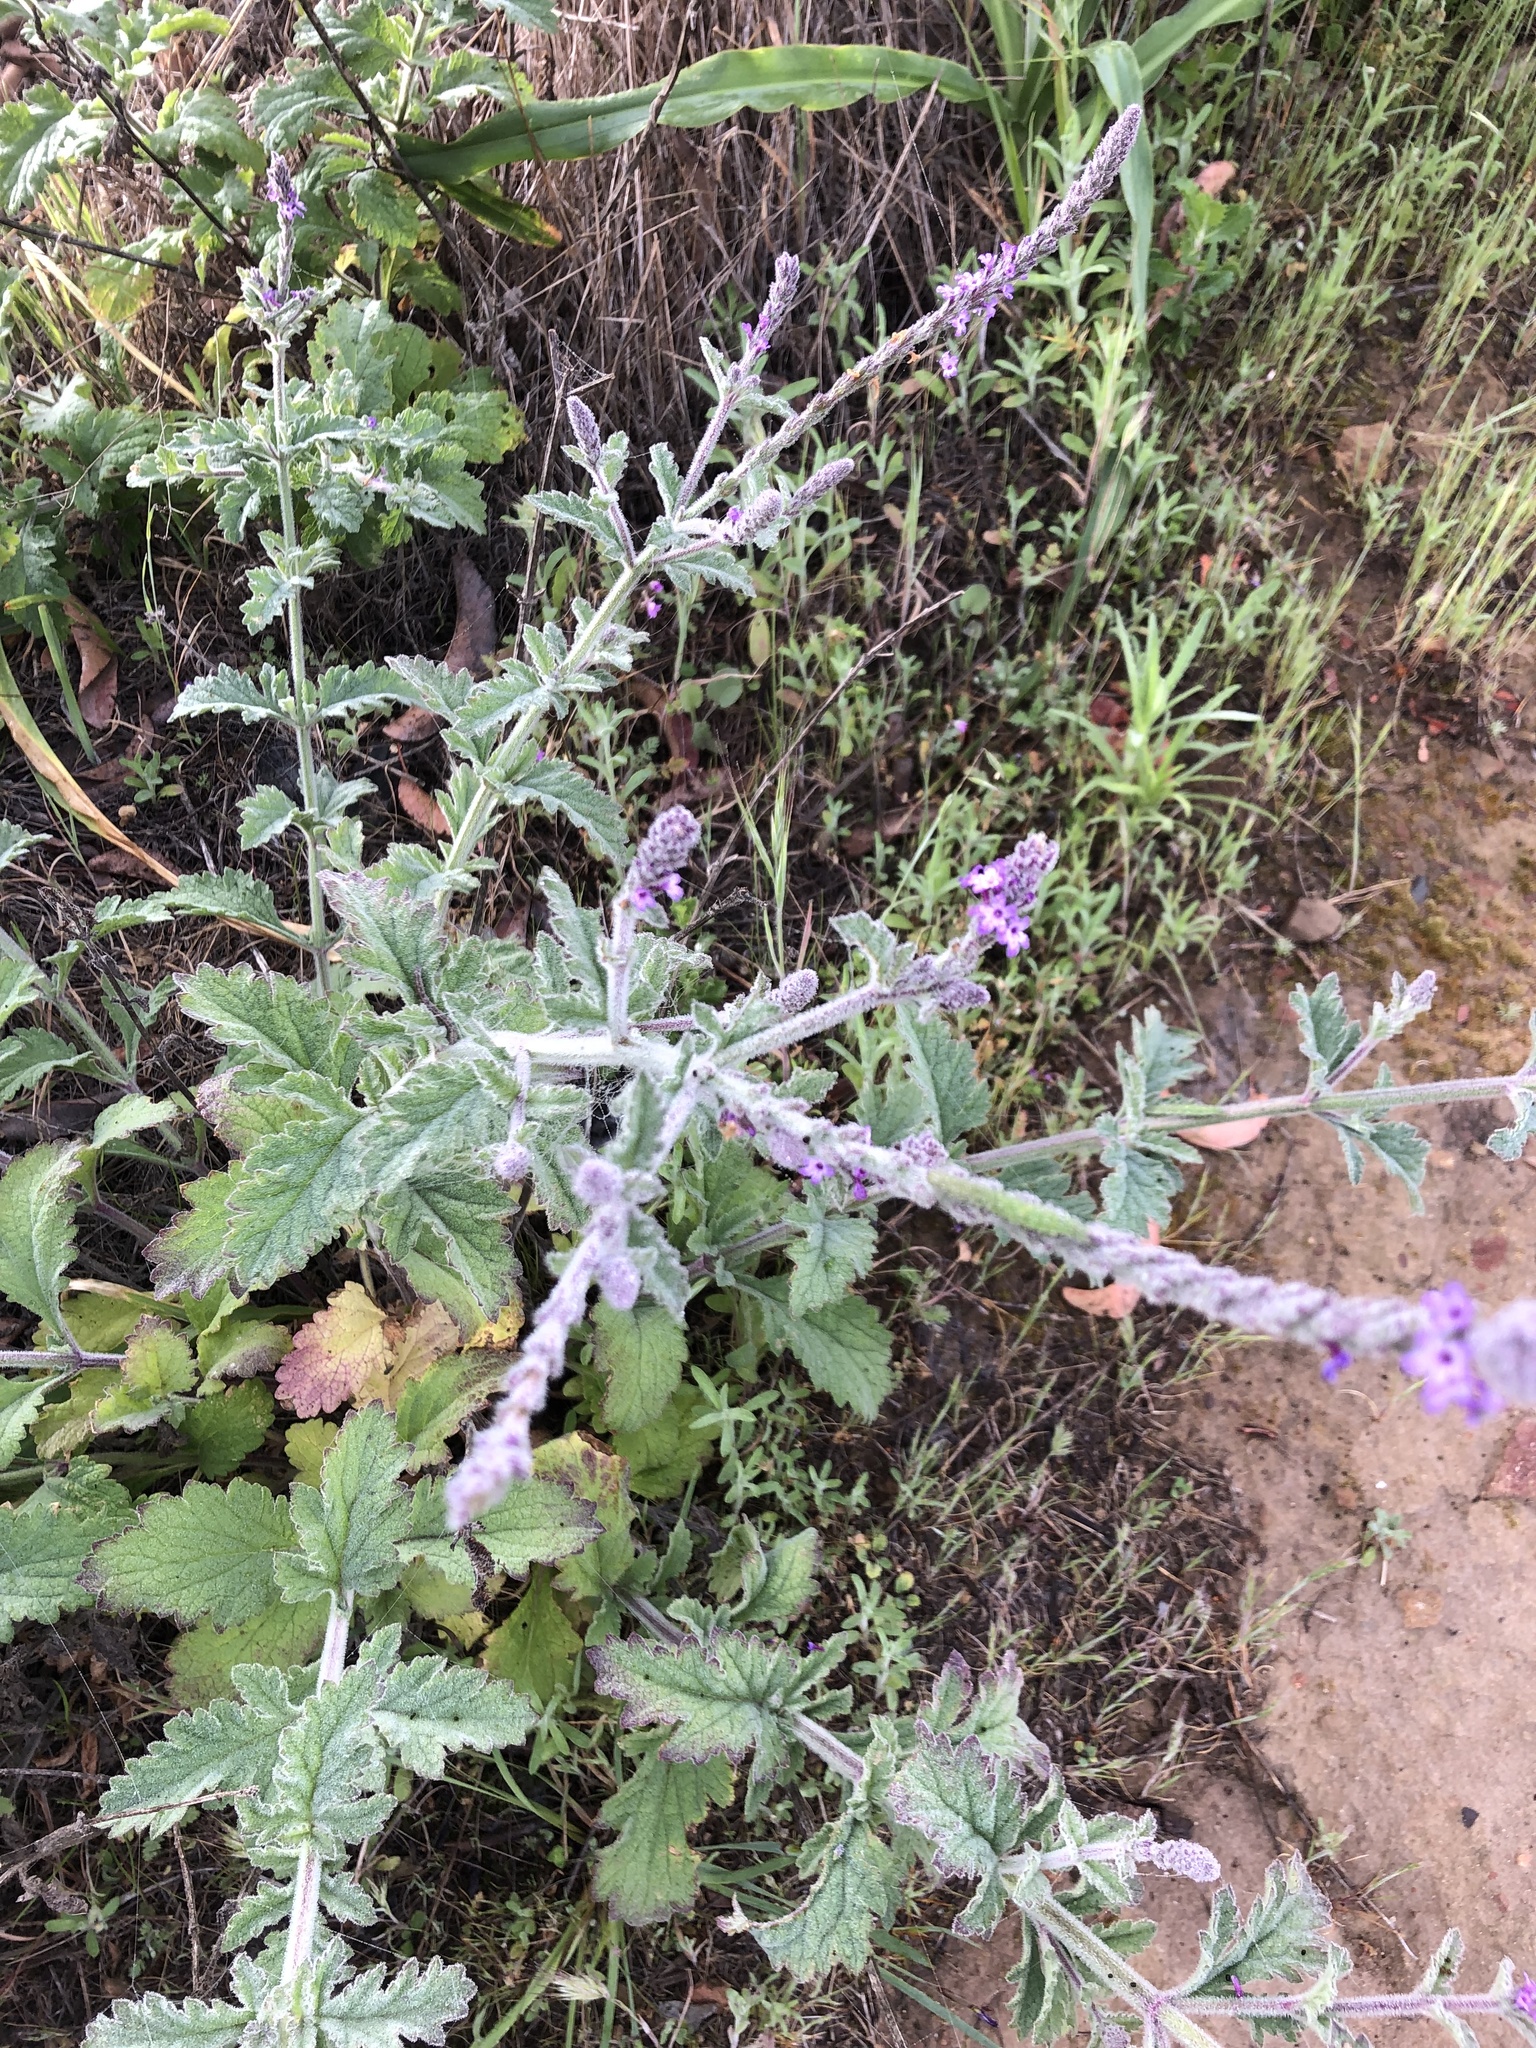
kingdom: Plantae
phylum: Tracheophyta
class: Magnoliopsida
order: Lamiales
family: Verbenaceae
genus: Verbena
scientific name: Verbena lasiostachys
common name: Vervain
